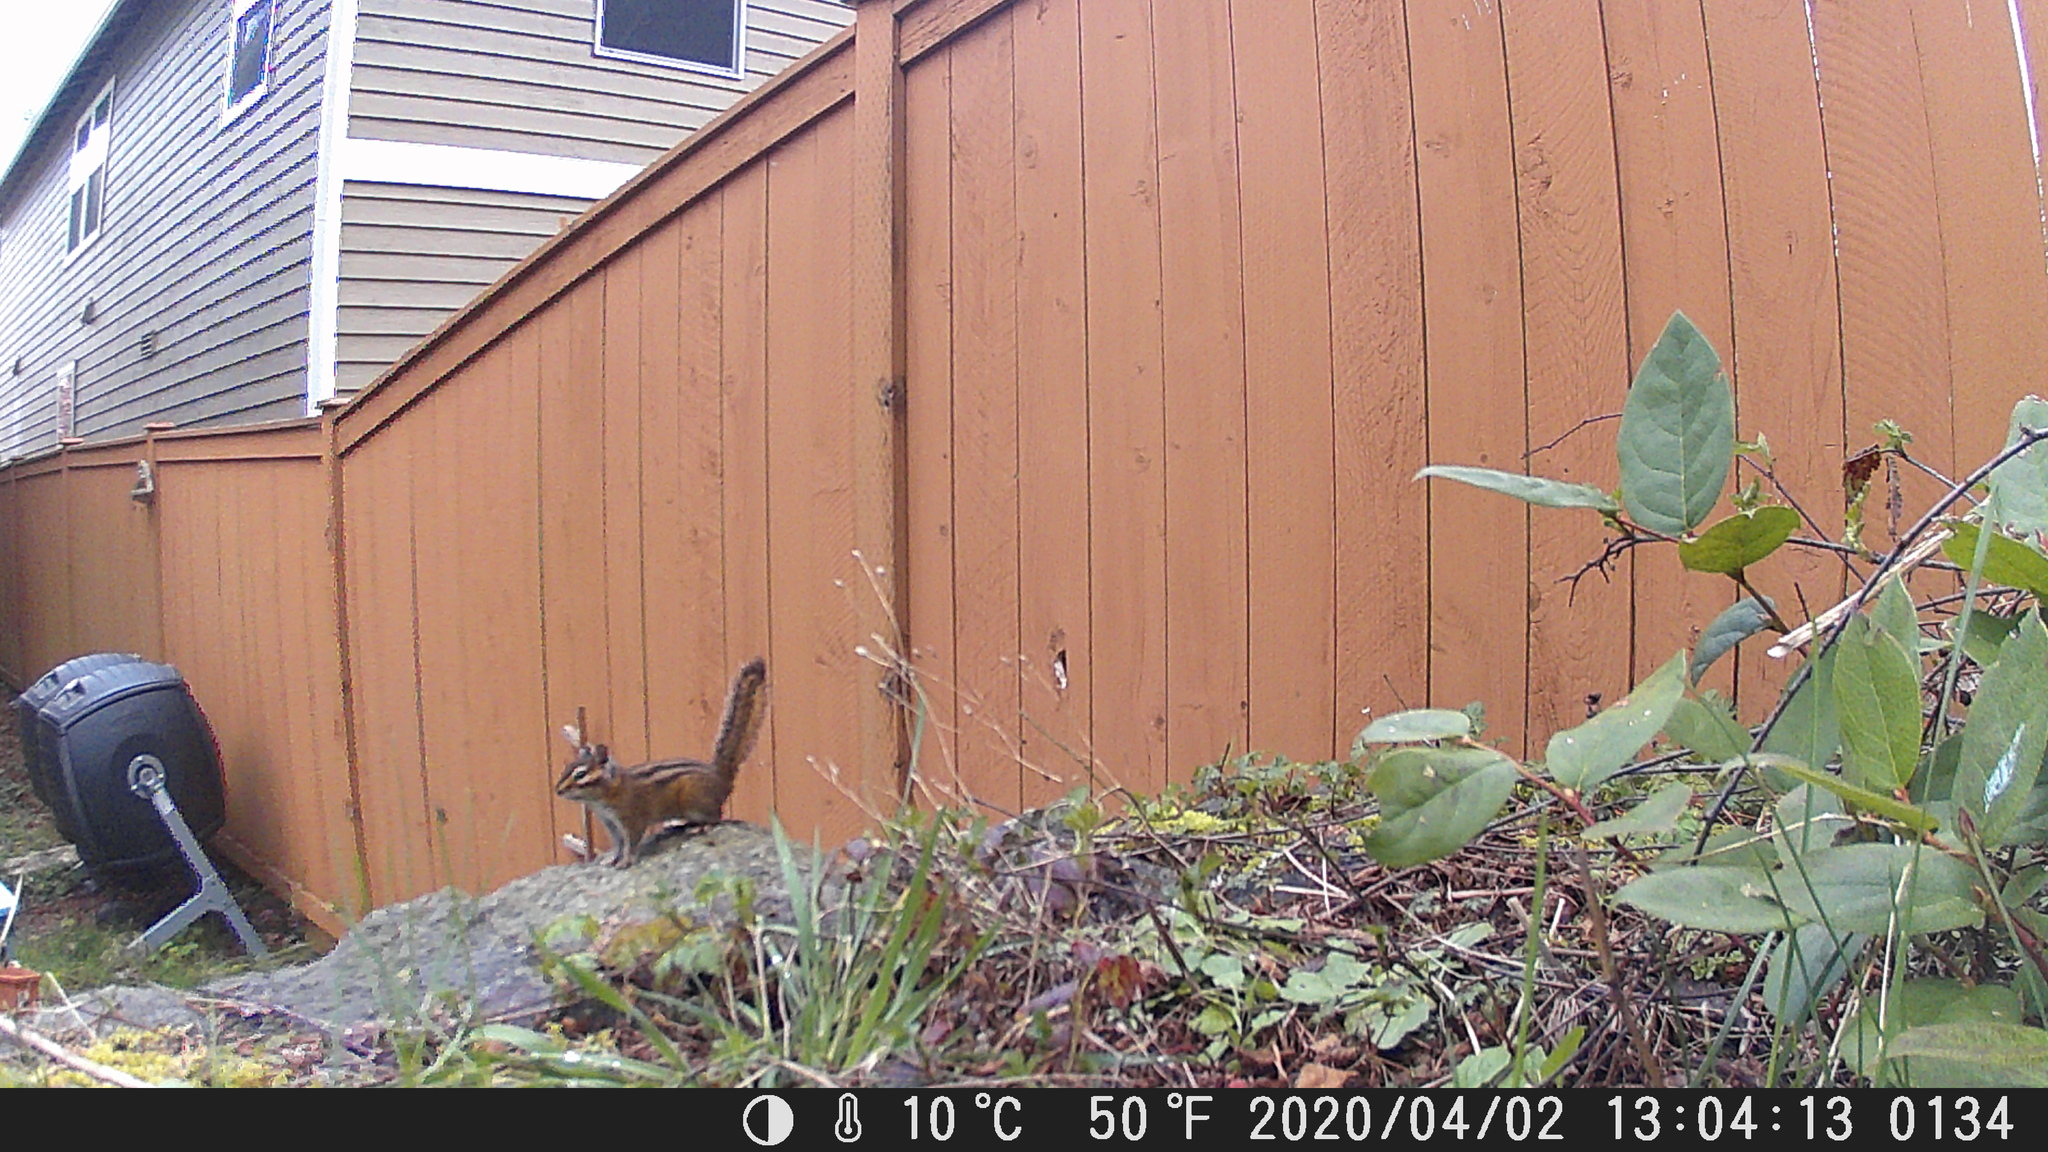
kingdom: Animalia
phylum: Chordata
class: Mammalia
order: Rodentia
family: Sciuridae
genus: Tamias
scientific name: Tamias townsendii
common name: Townsend's chipmunk
